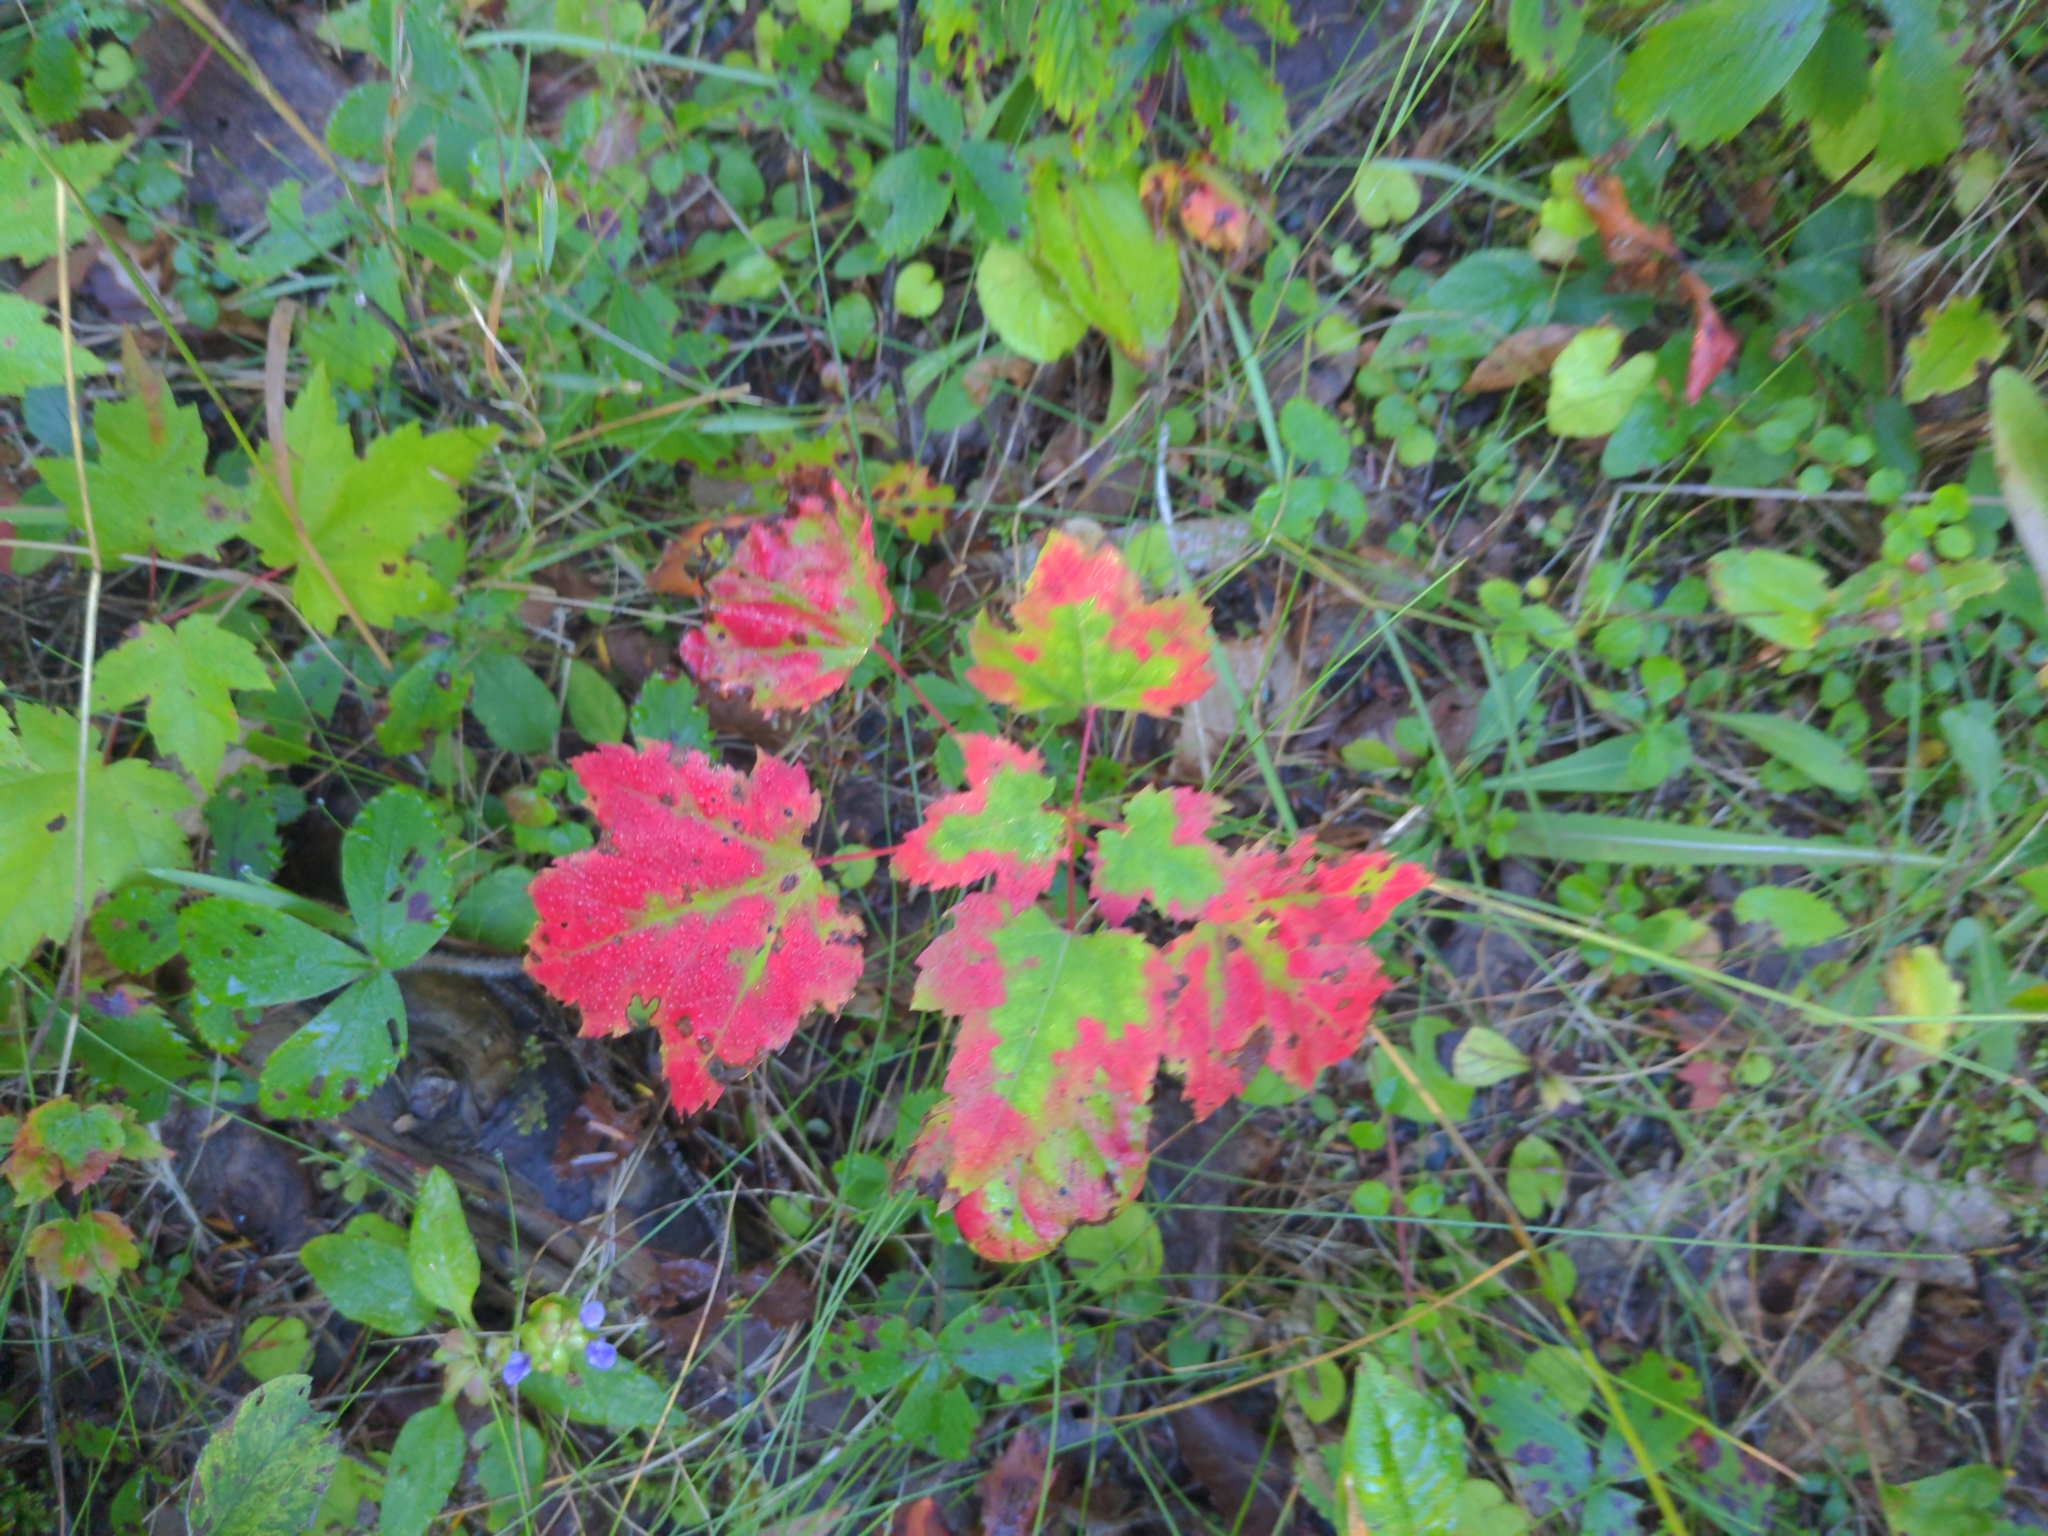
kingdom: Plantae
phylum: Tracheophyta
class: Magnoliopsida
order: Sapindales
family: Sapindaceae
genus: Acer
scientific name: Acer rubrum
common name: Red maple
